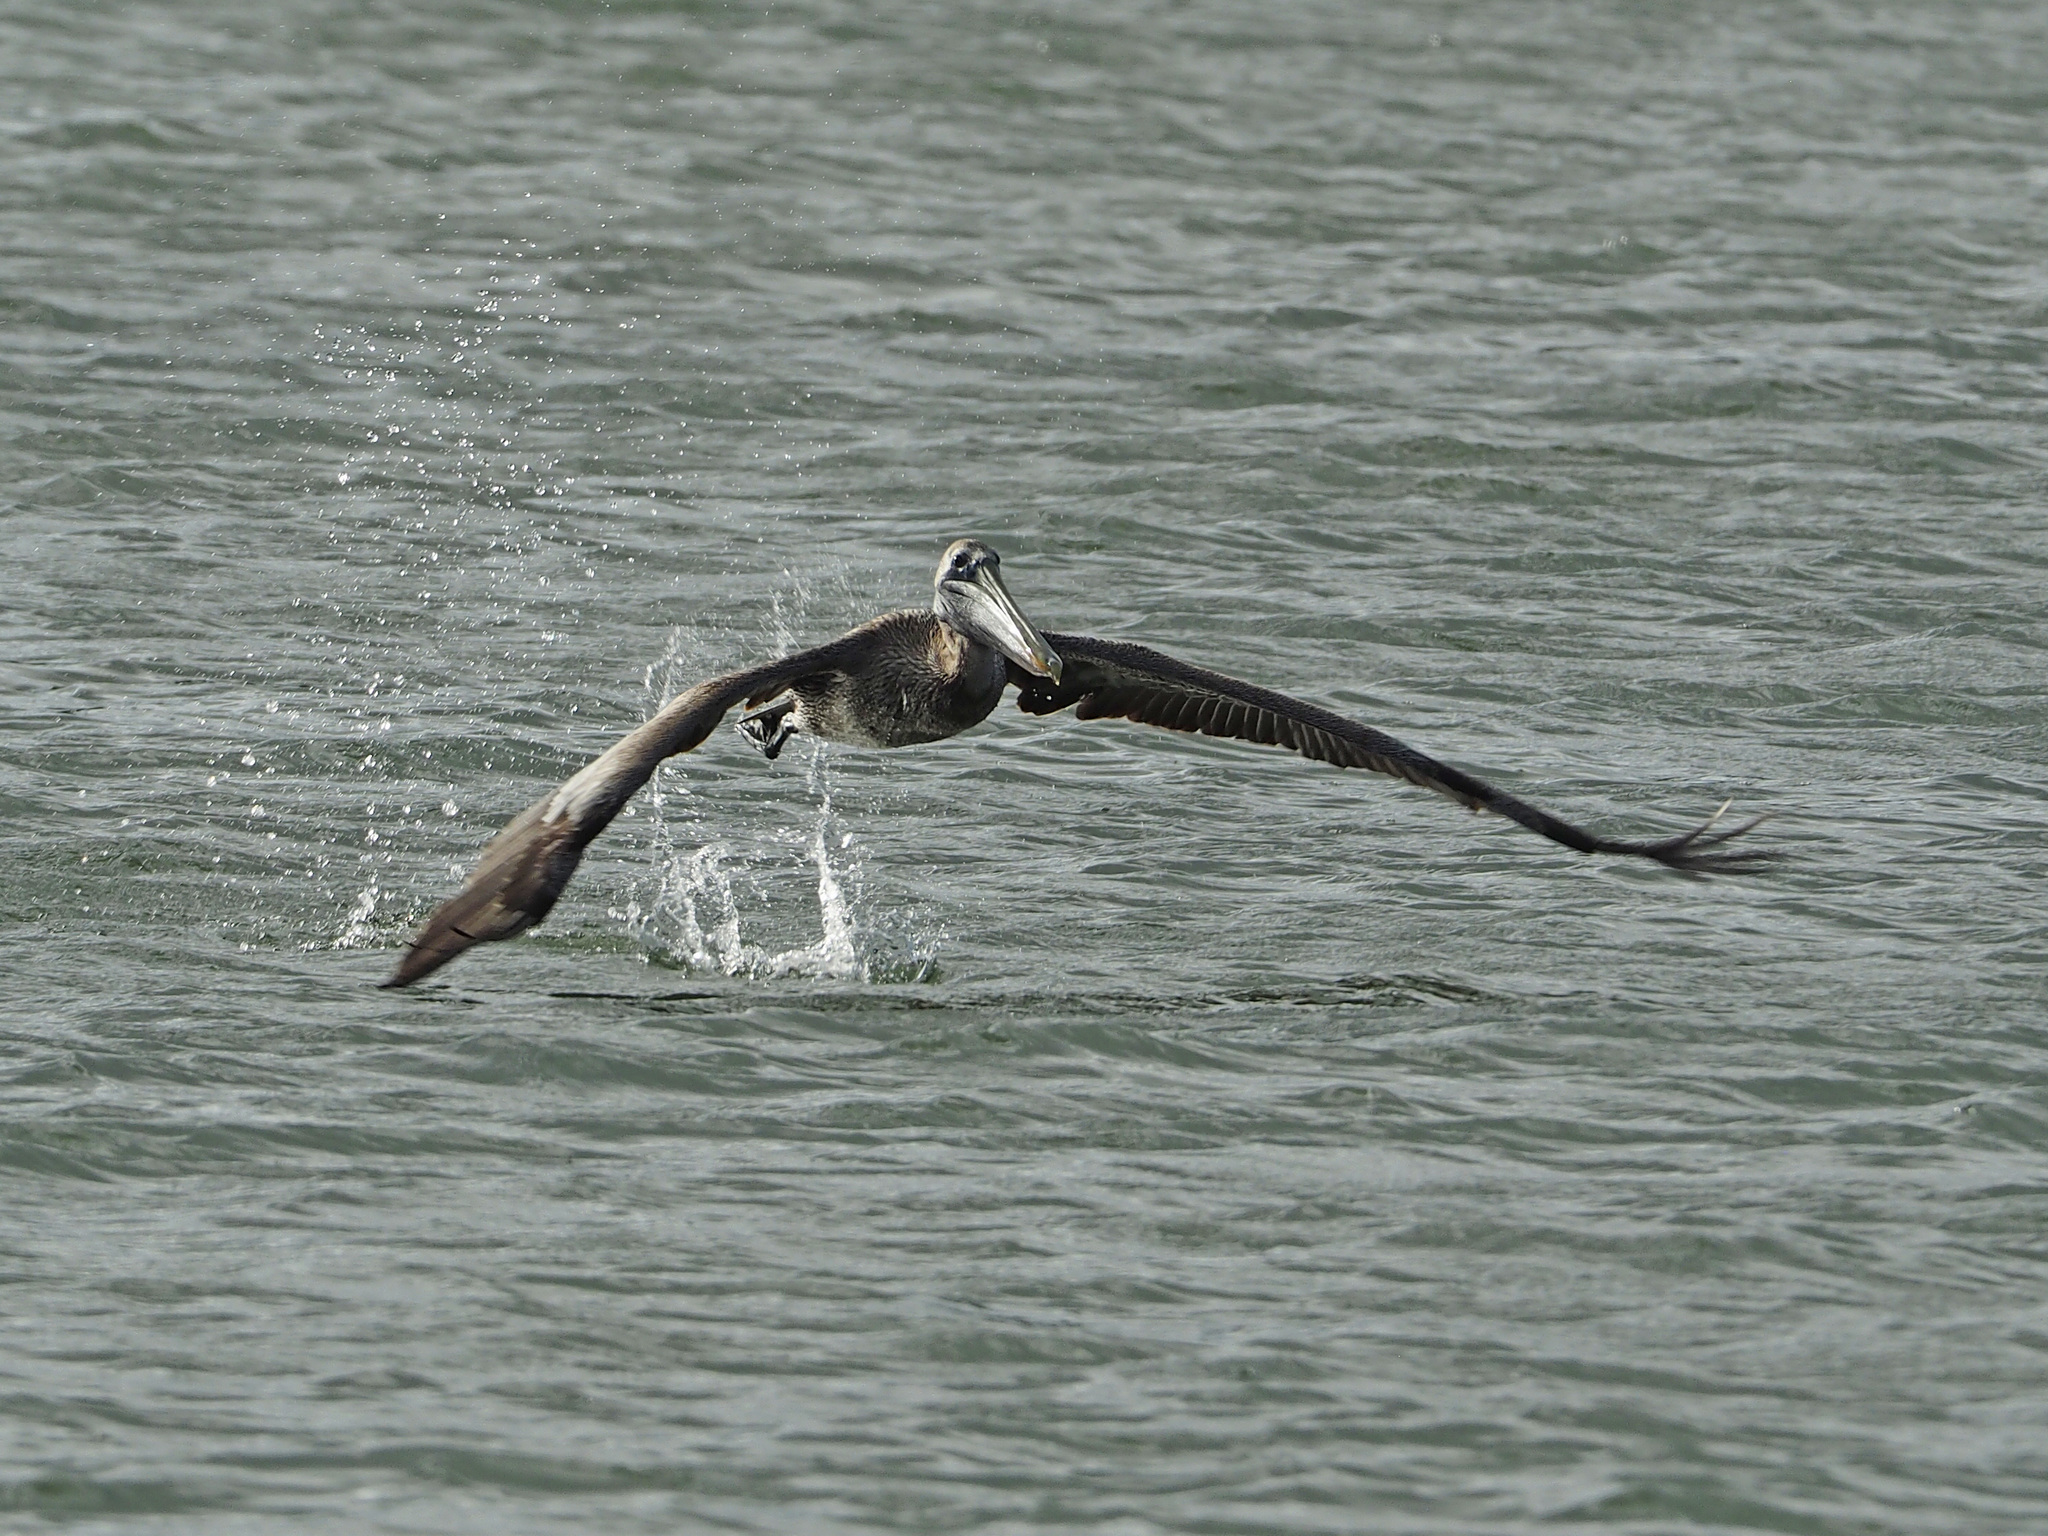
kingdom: Animalia
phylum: Chordata
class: Aves
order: Pelecaniformes
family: Pelecanidae
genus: Pelecanus
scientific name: Pelecanus occidentalis
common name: Brown pelican
